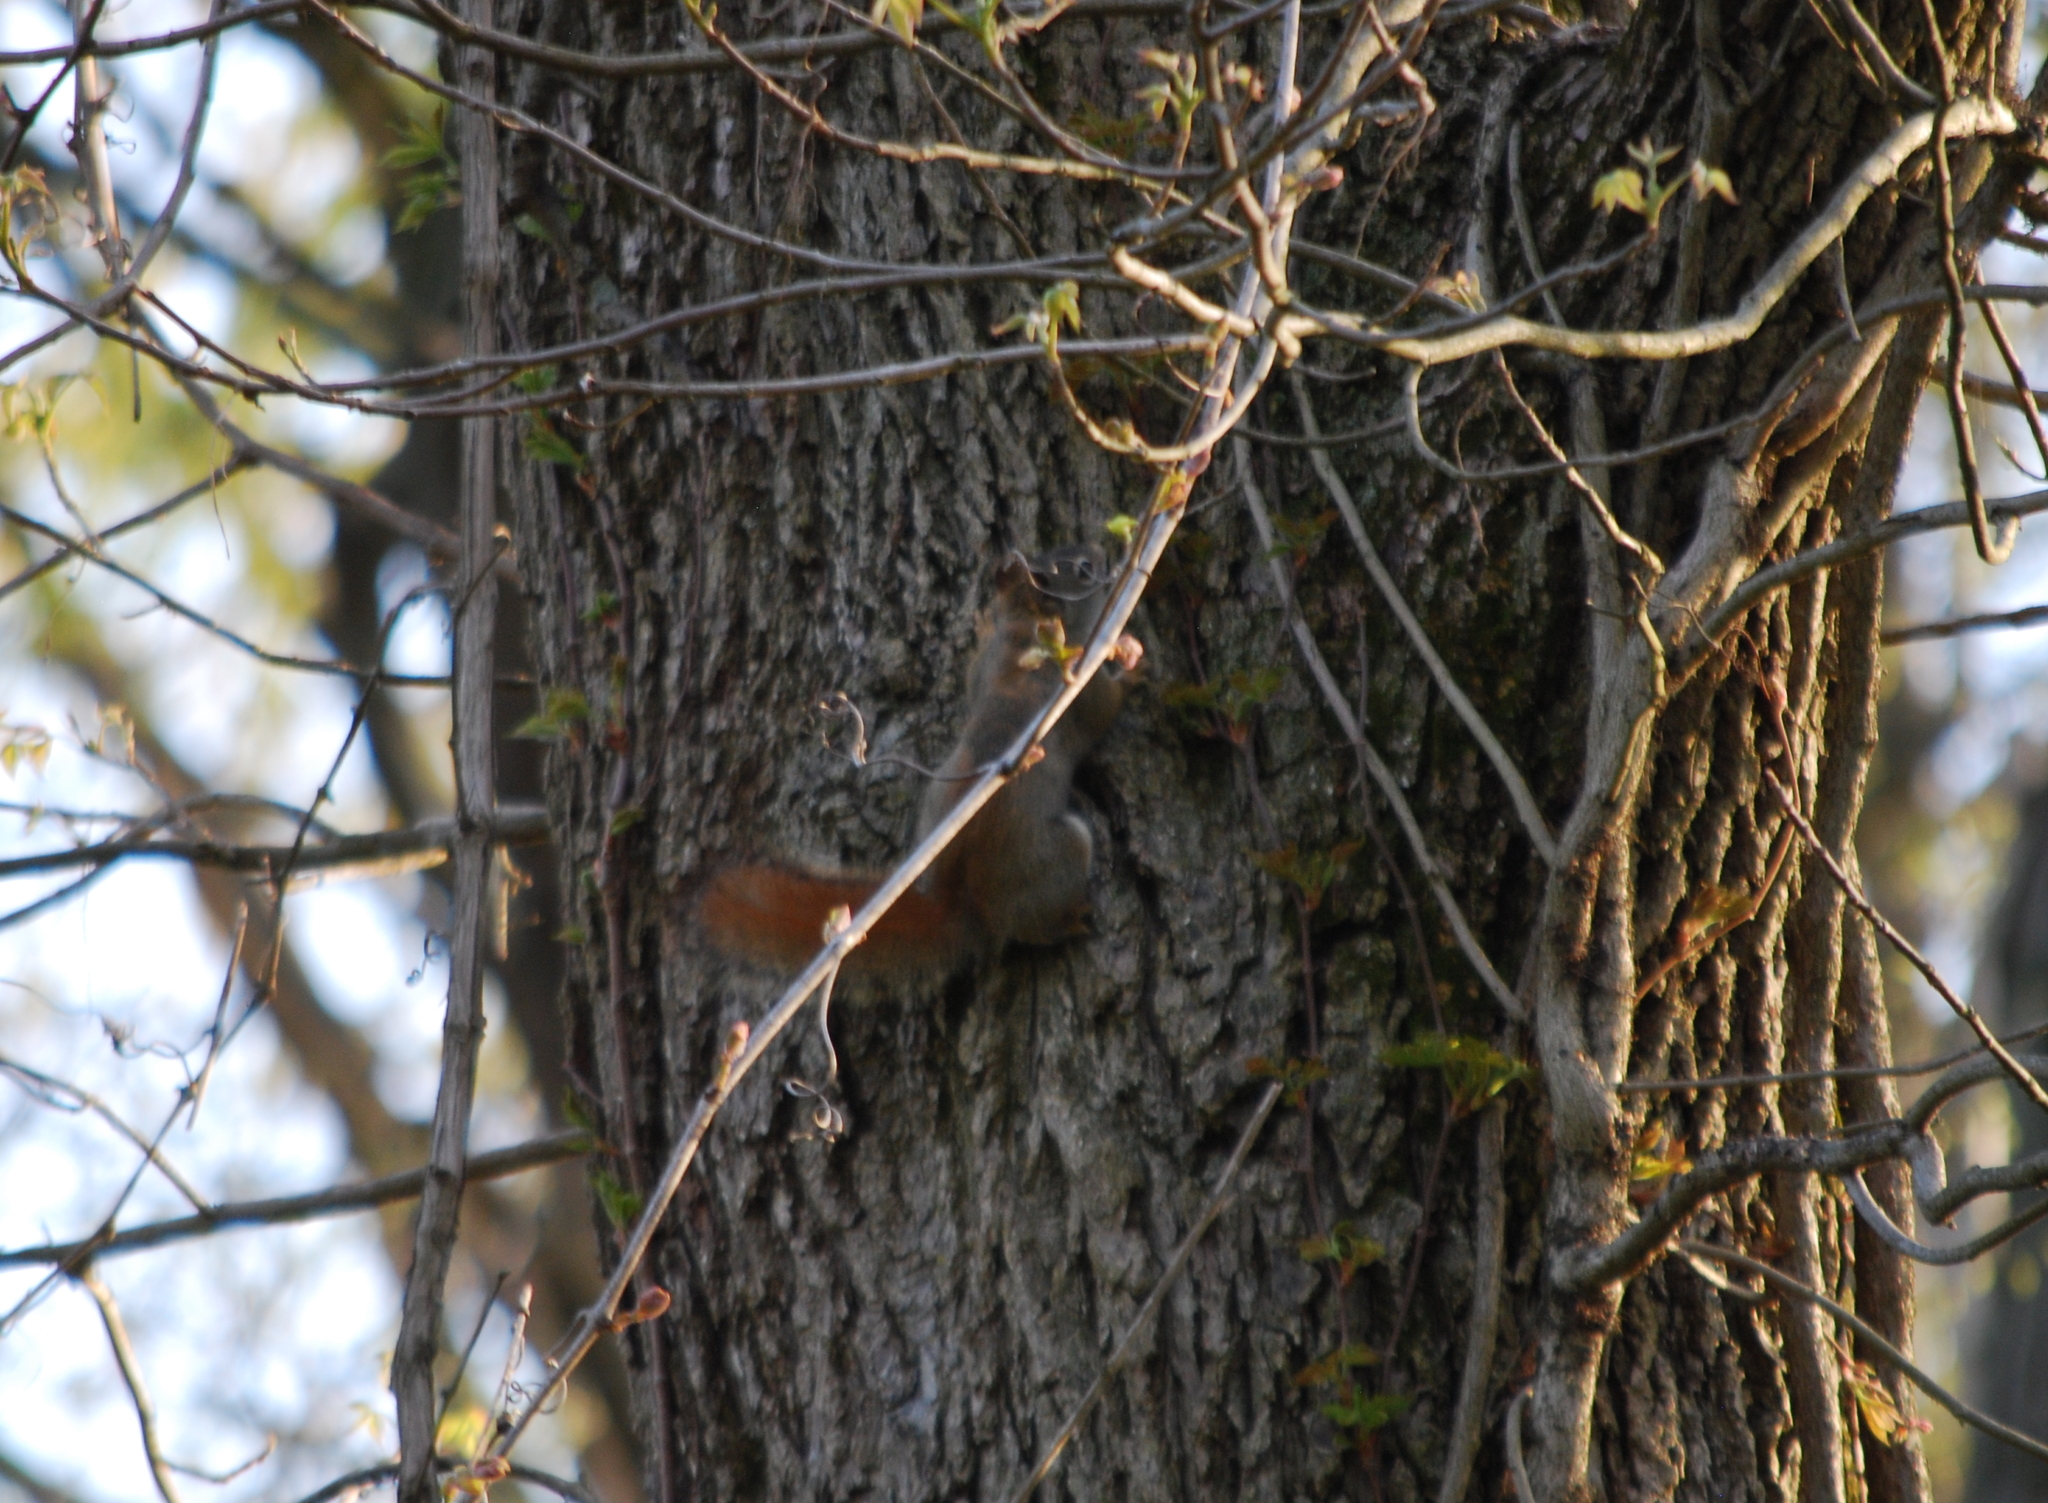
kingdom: Animalia
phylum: Chordata
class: Mammalia
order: Rodentia
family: Sciuridae
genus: Tamiasciurus
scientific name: Tamiasciurus hudsonicus
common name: Red squirrel
